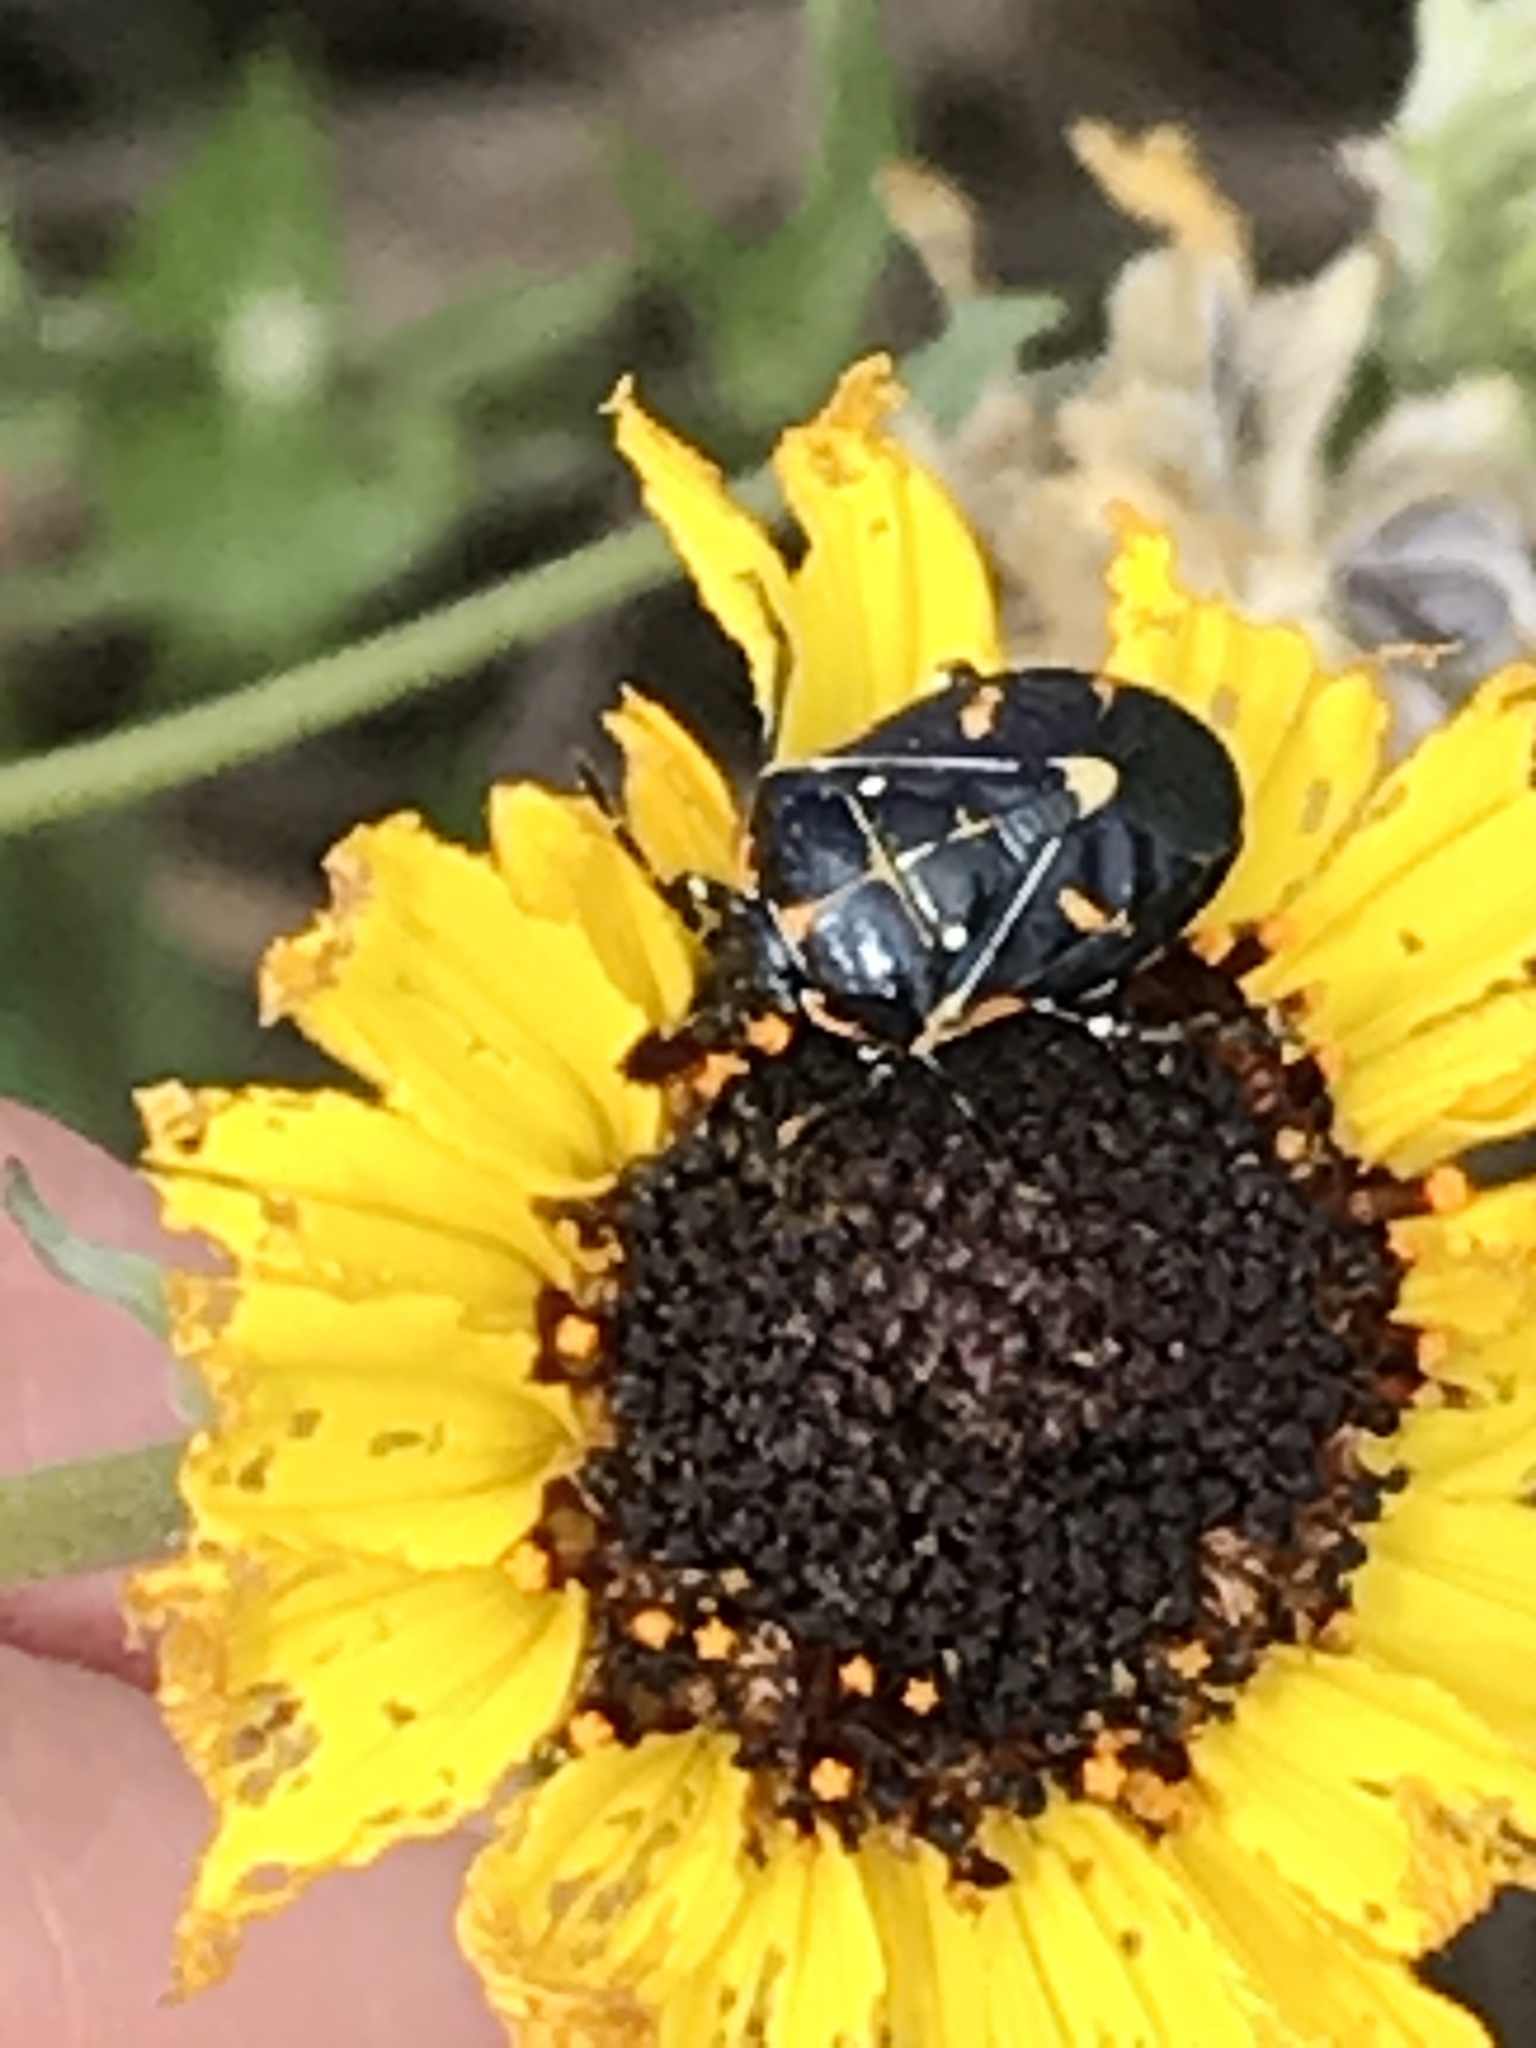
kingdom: Animalia
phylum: Arthropoda
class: Insecta
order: Hemiptera
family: Pentatomidae
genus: Murgantia
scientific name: Murgantia histrionica
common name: Harlequin bug
